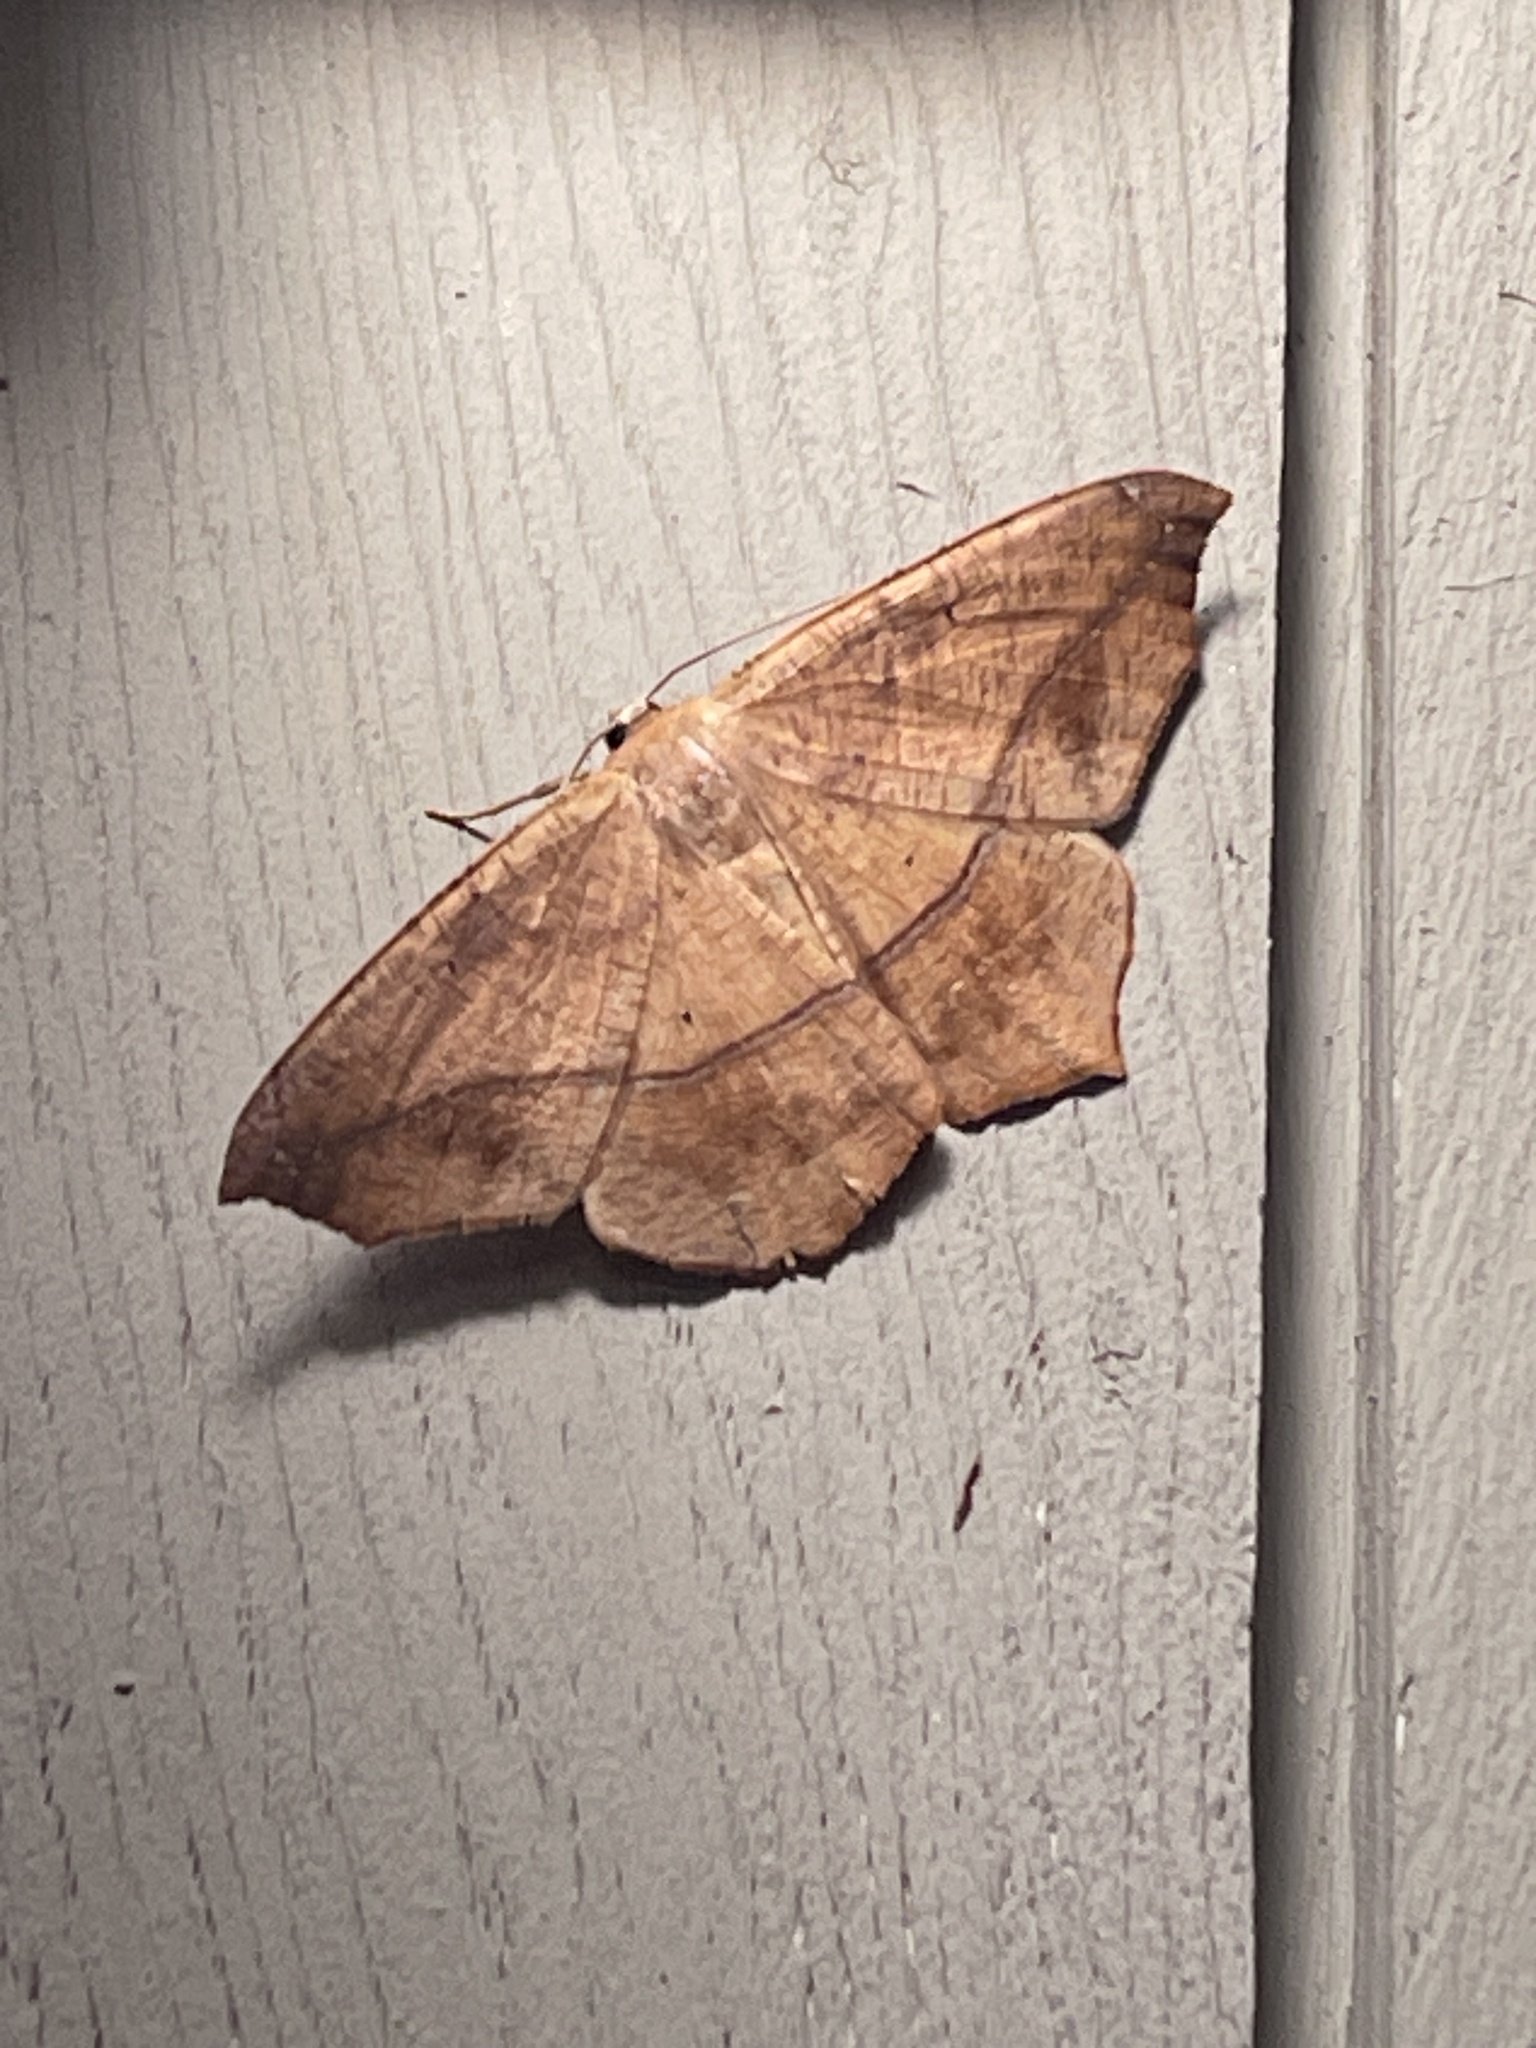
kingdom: Animalia
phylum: Arthropoda
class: Insecta
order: Lepidoptera
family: Geometridae
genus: Prochoerodes
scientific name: Prochoerodes lineola
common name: Large maple spanworm
